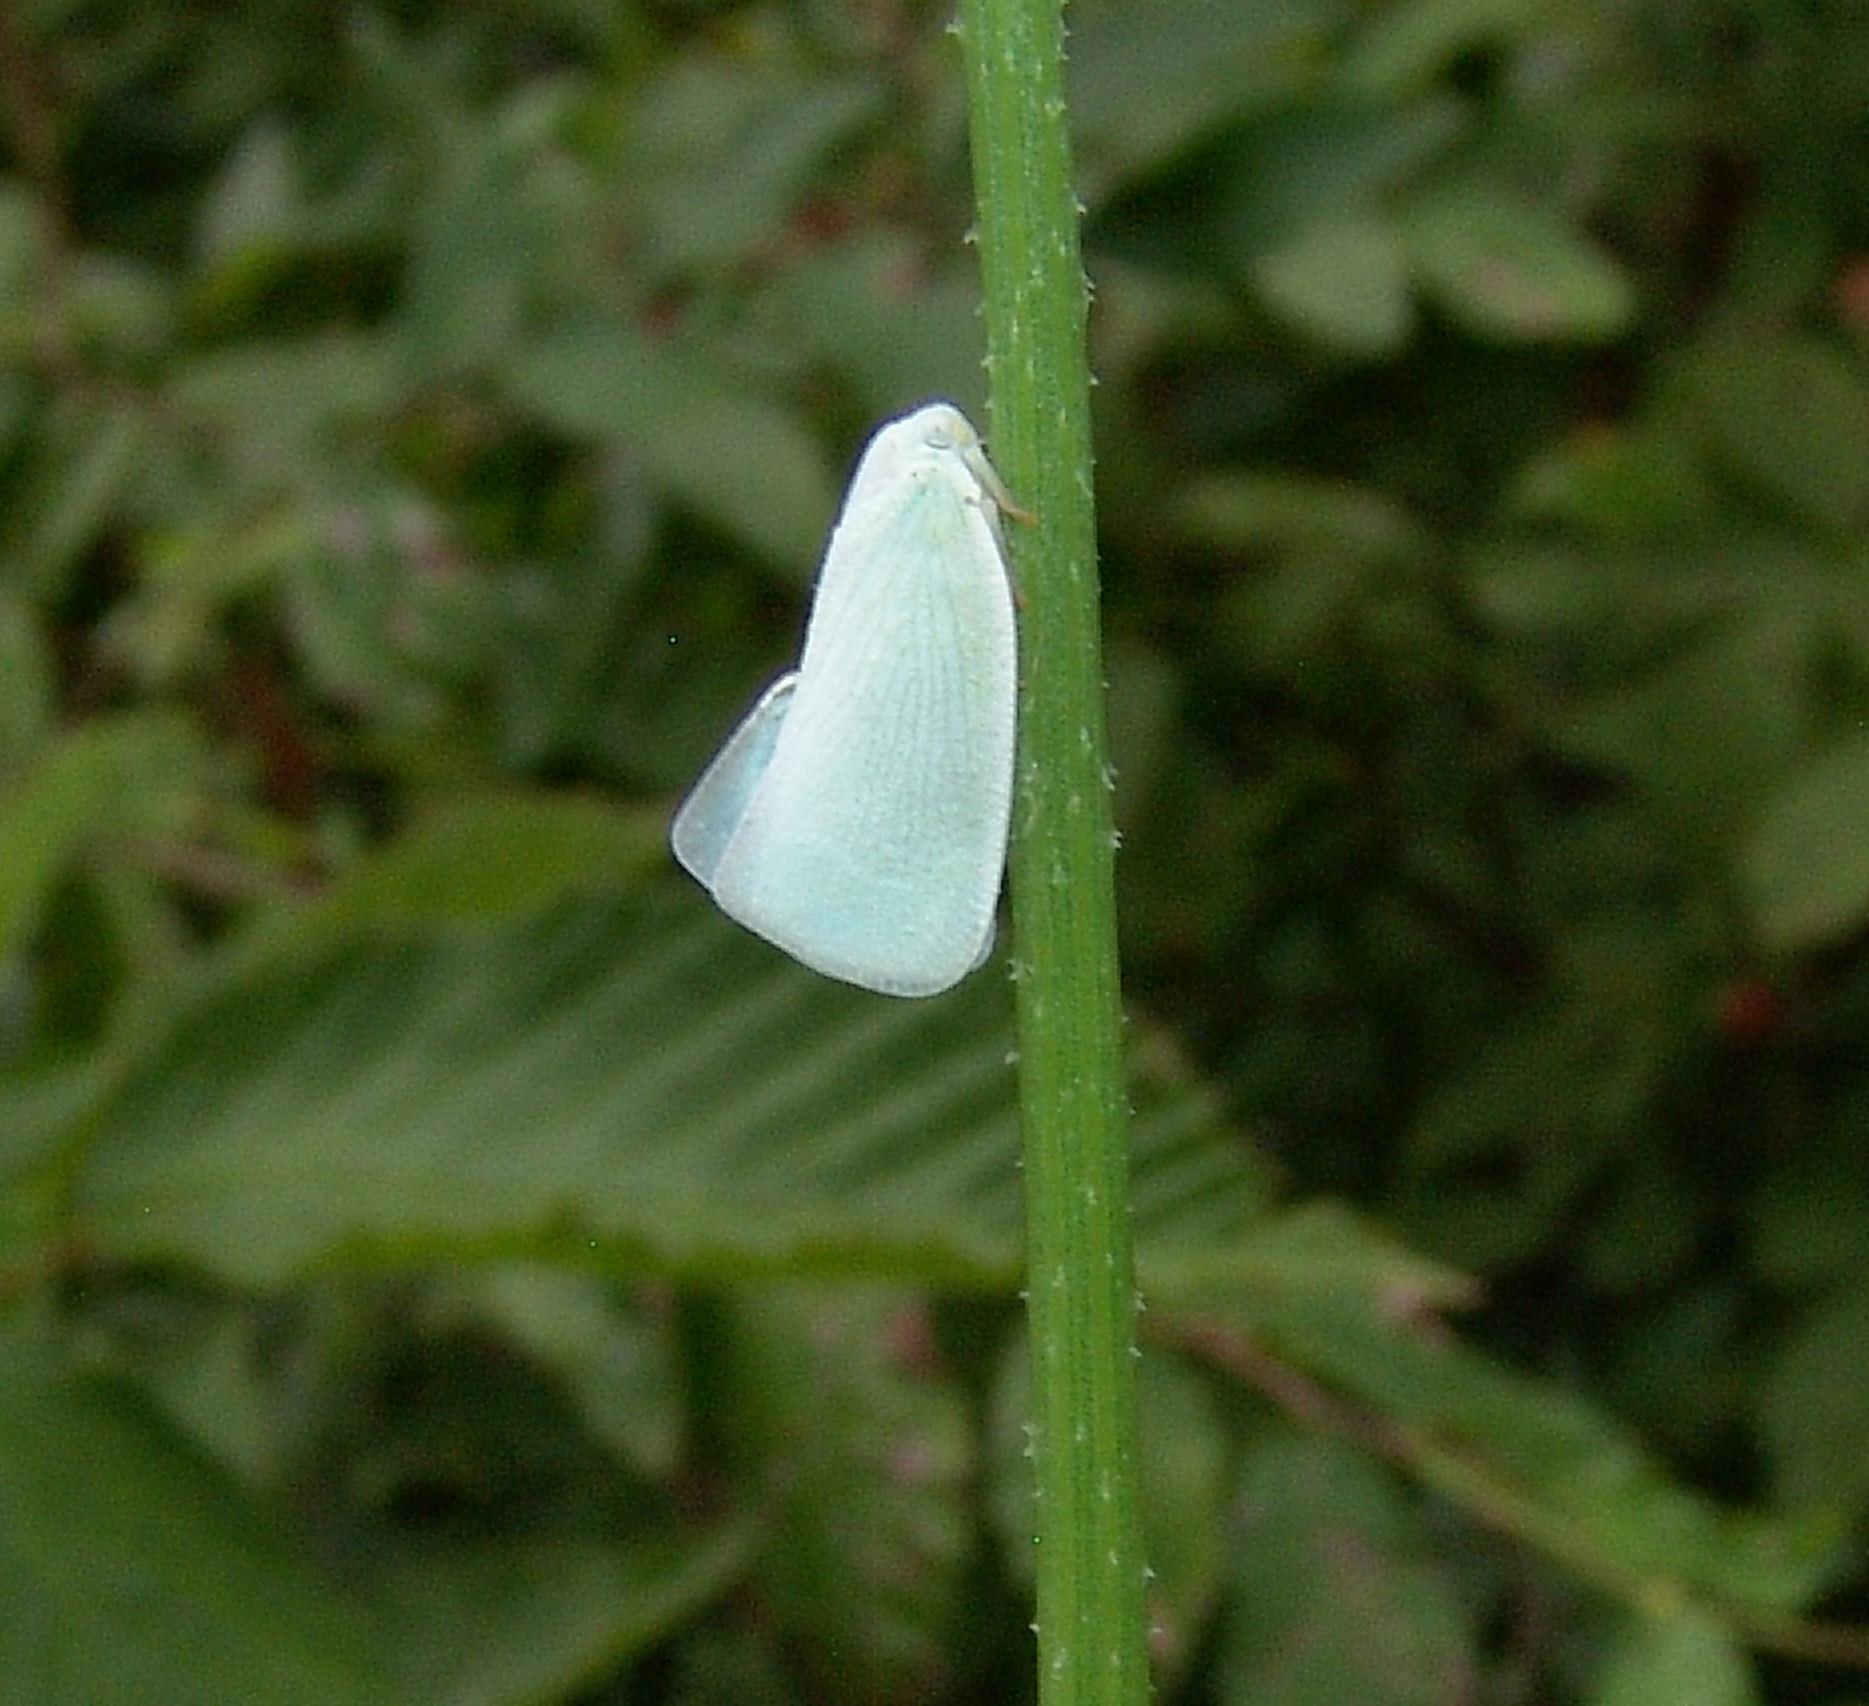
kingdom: Animalia
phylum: Arthropoda
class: Insecta
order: Hemiptera
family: Flatidae
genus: Flatormenis
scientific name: Flatormenis proxima
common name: Northern flatid planthopper
